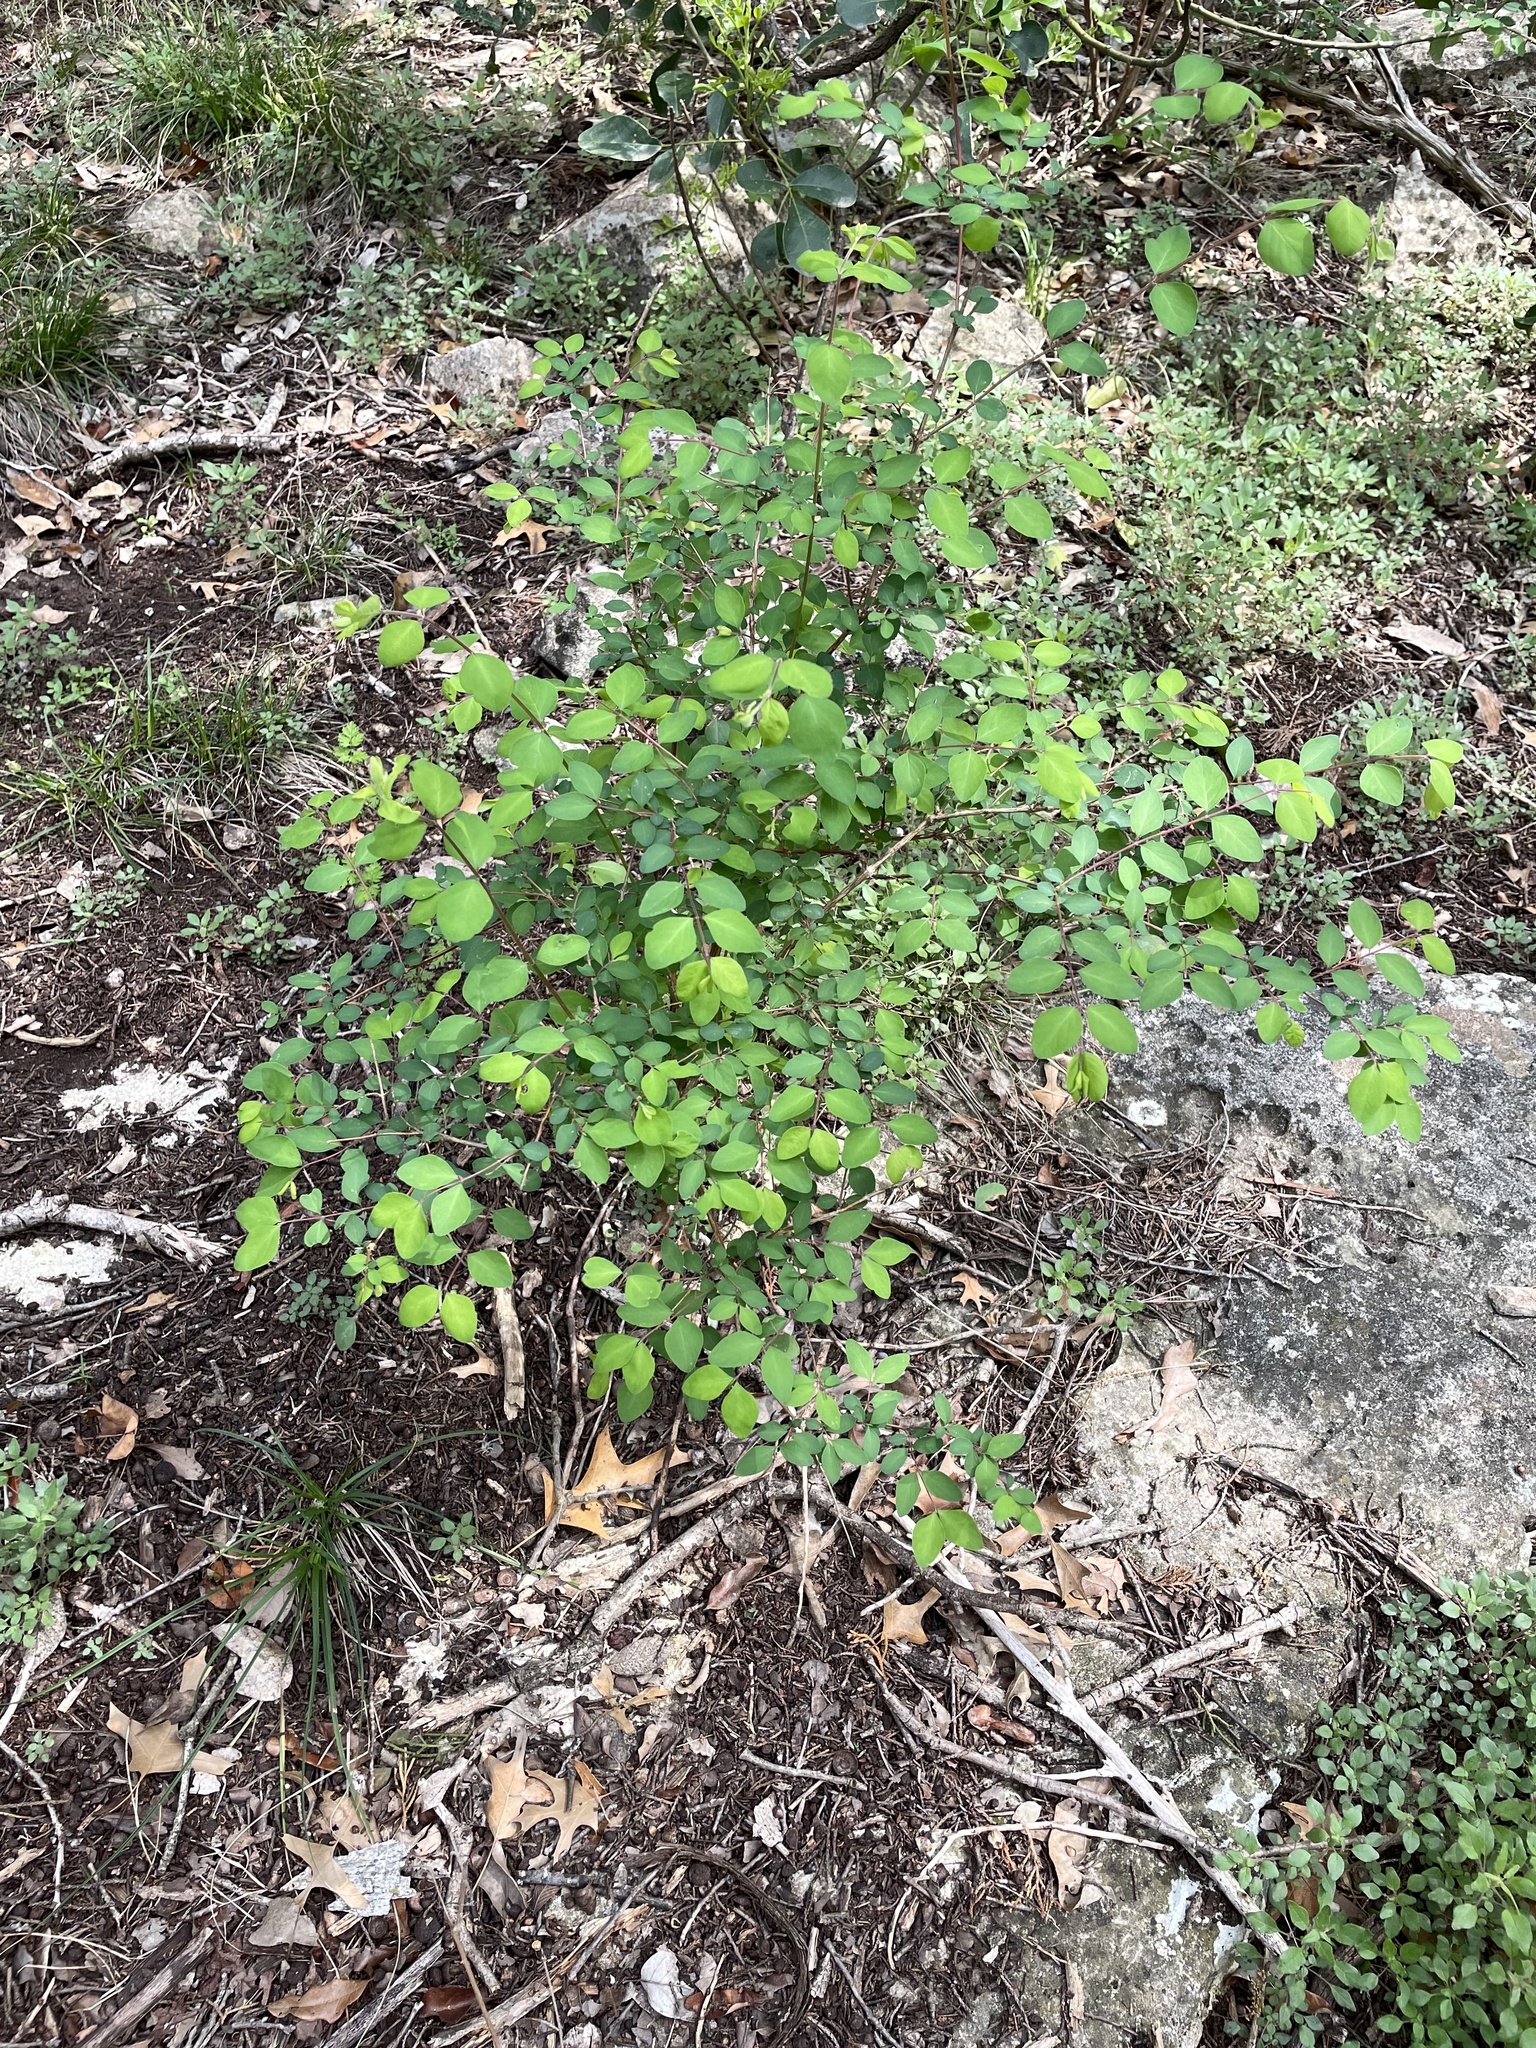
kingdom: Plantae
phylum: Tracheophyta
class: Magnoliopsida
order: Dipsacales
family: Caprifoliaceae
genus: Symphoricarpos
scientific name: Symphoricarpos orbiculatus
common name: Coralberry
